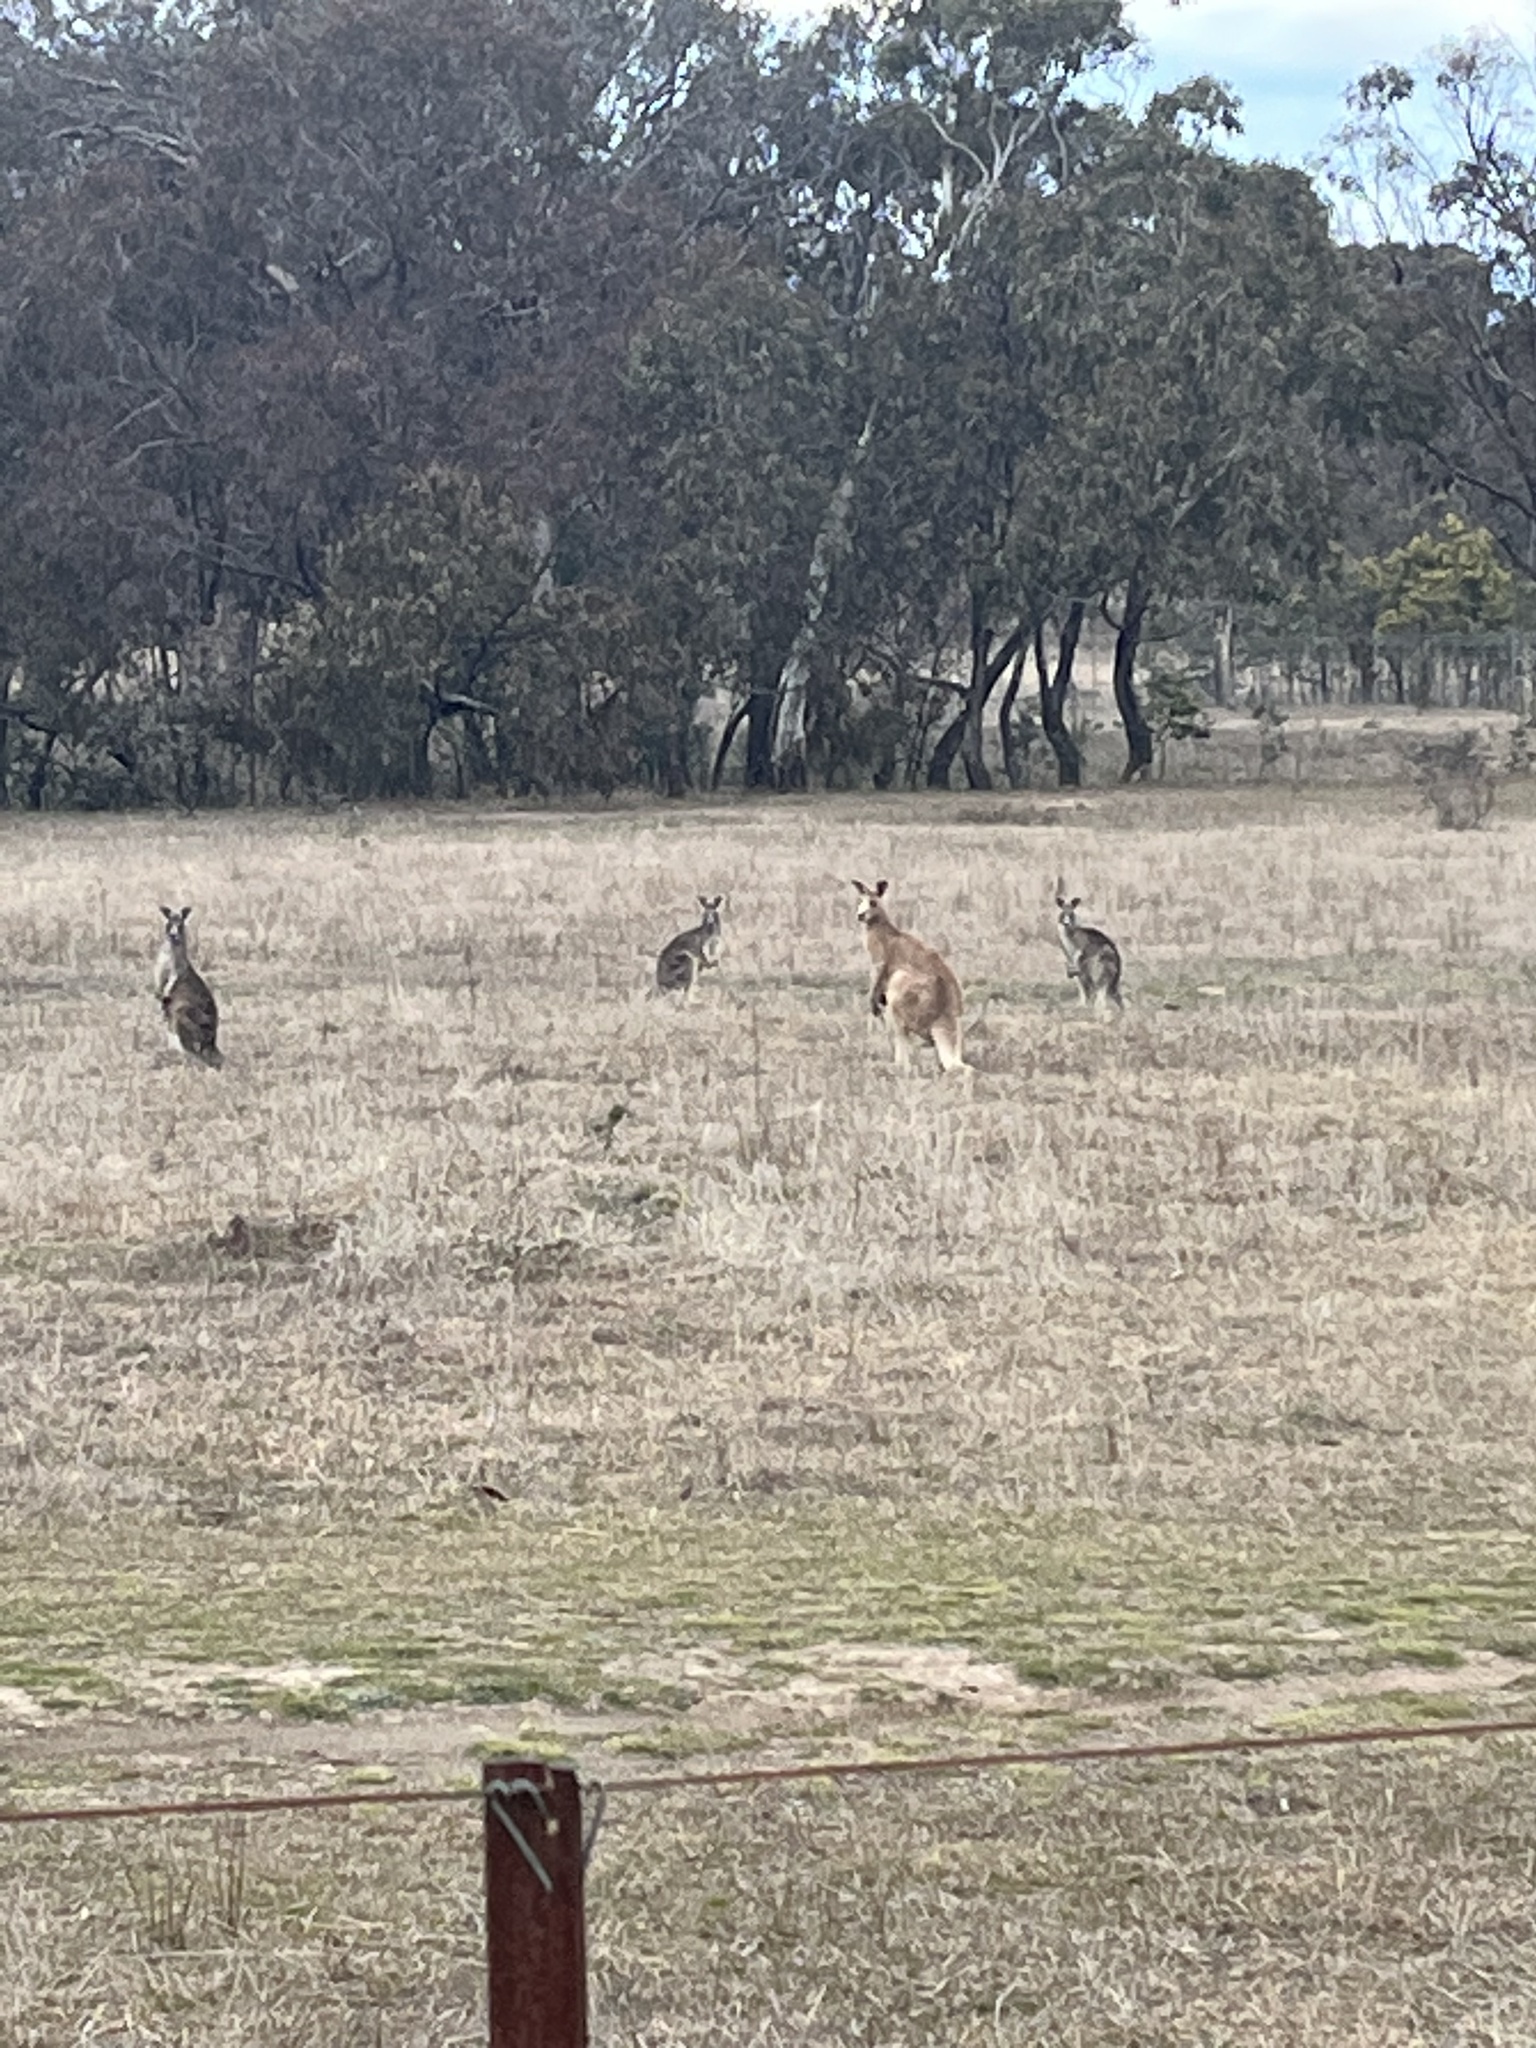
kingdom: Animalia
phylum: Chordata
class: Mammalia
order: Diprotodontia
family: Macropodidae
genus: Macropus
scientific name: Macropus giganteus
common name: Eastern grey kangaroo
